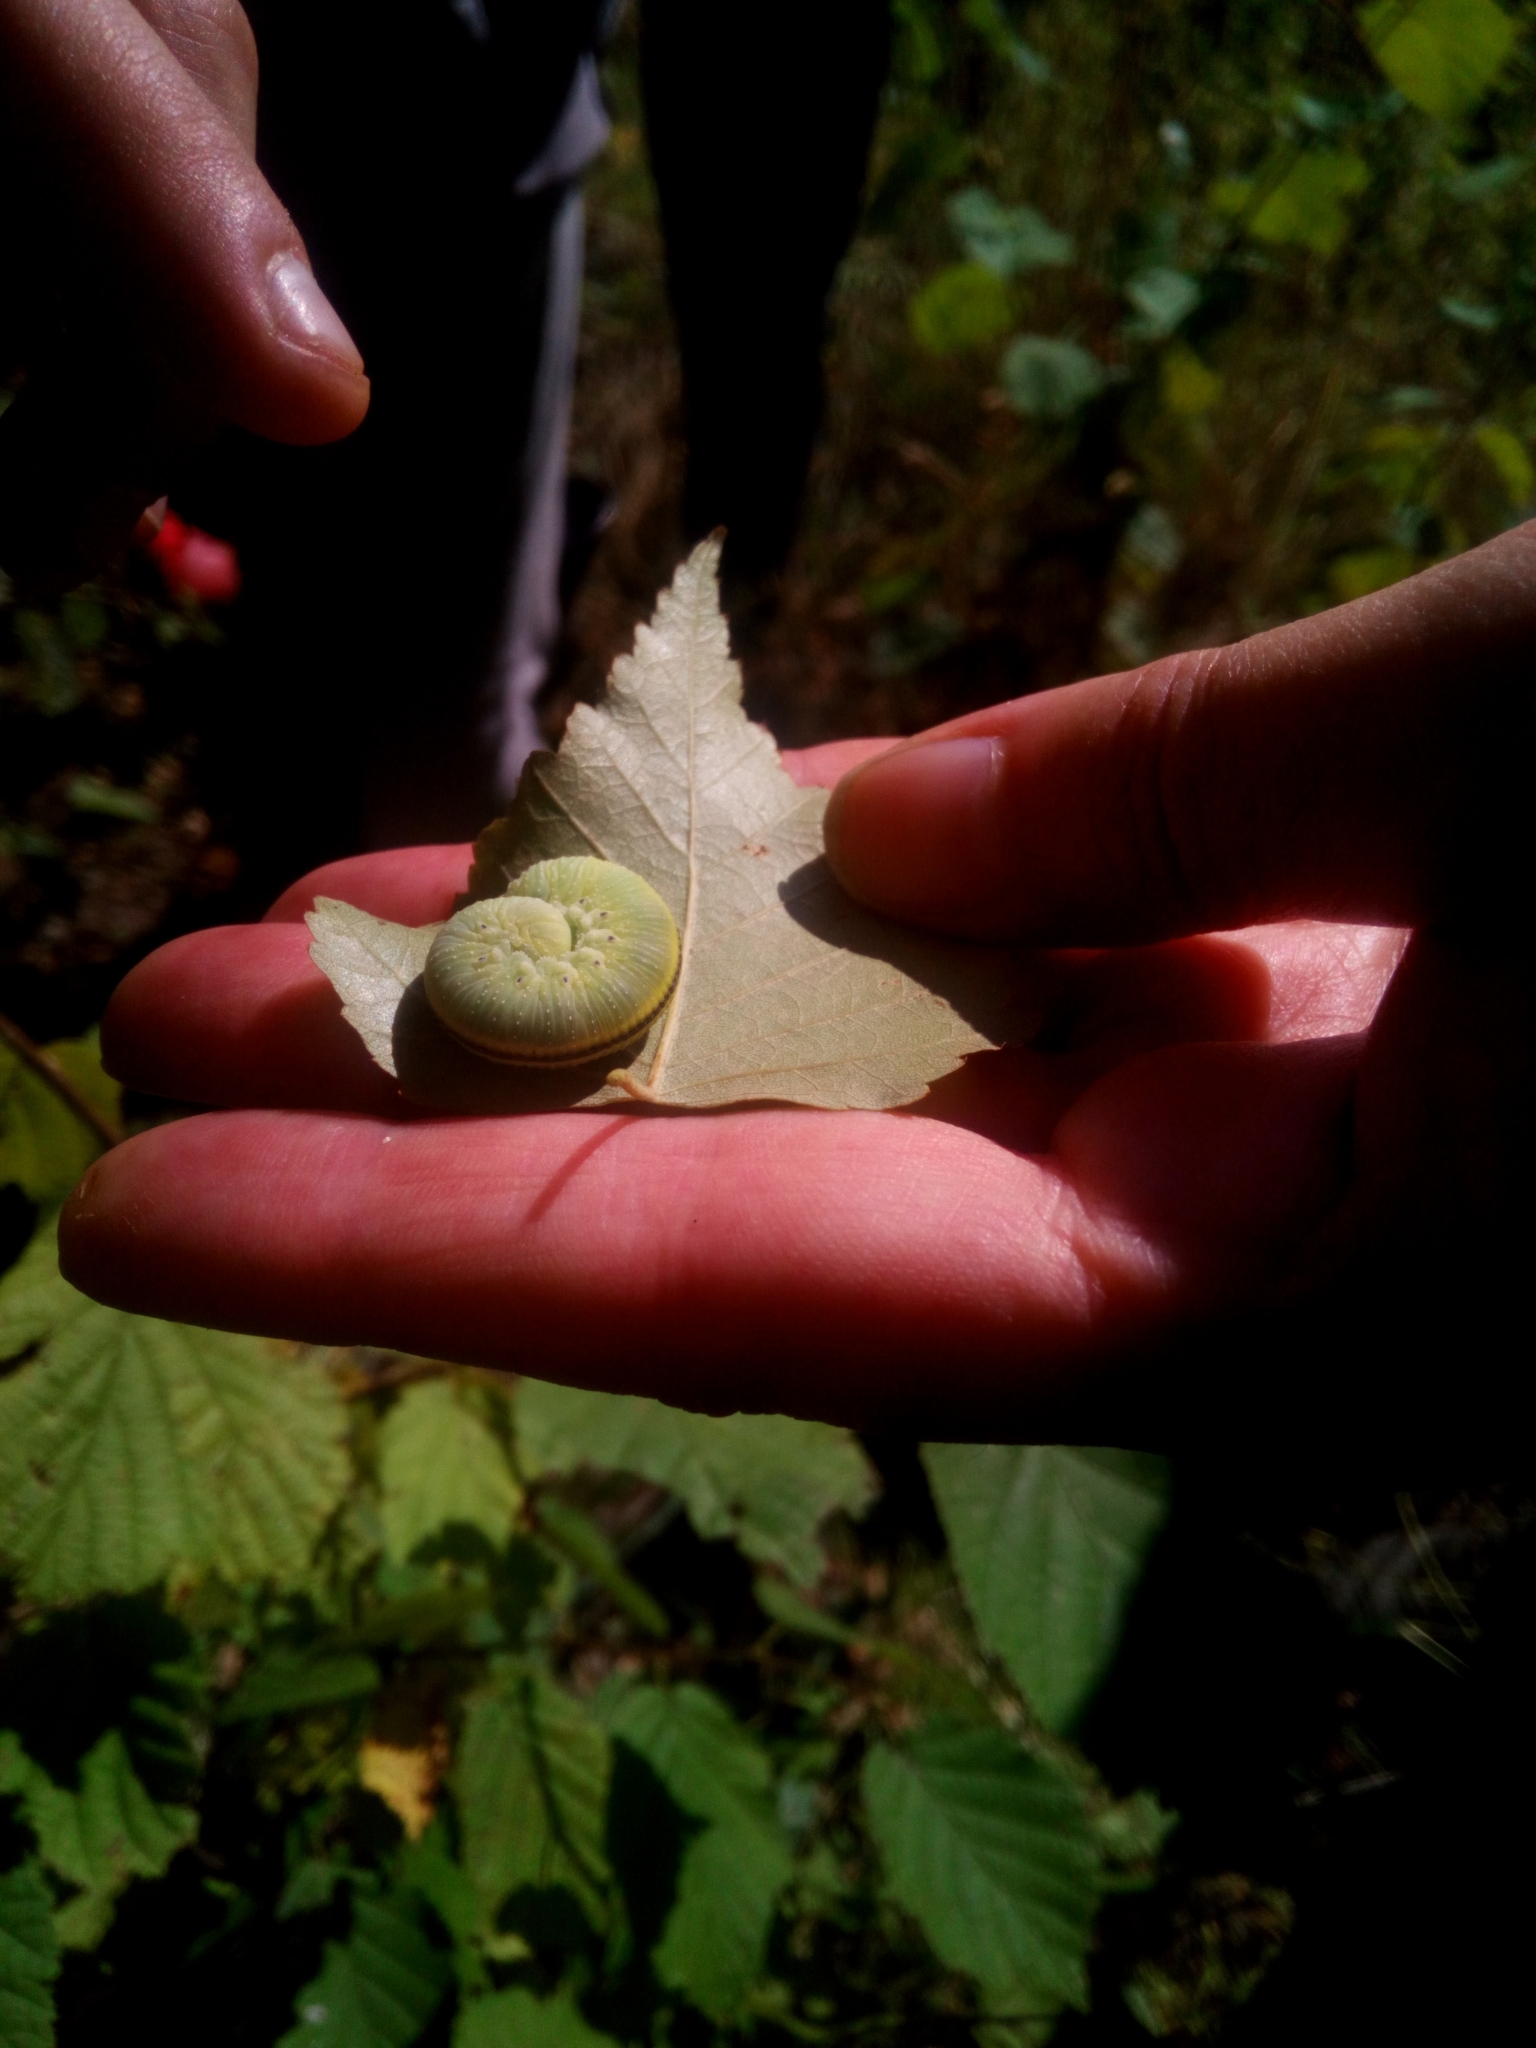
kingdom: Animalia
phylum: Arthropoda
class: Insecta
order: Hymenoptera
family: Cimbicidae
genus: Cimbex
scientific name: Cimbex femoratus
